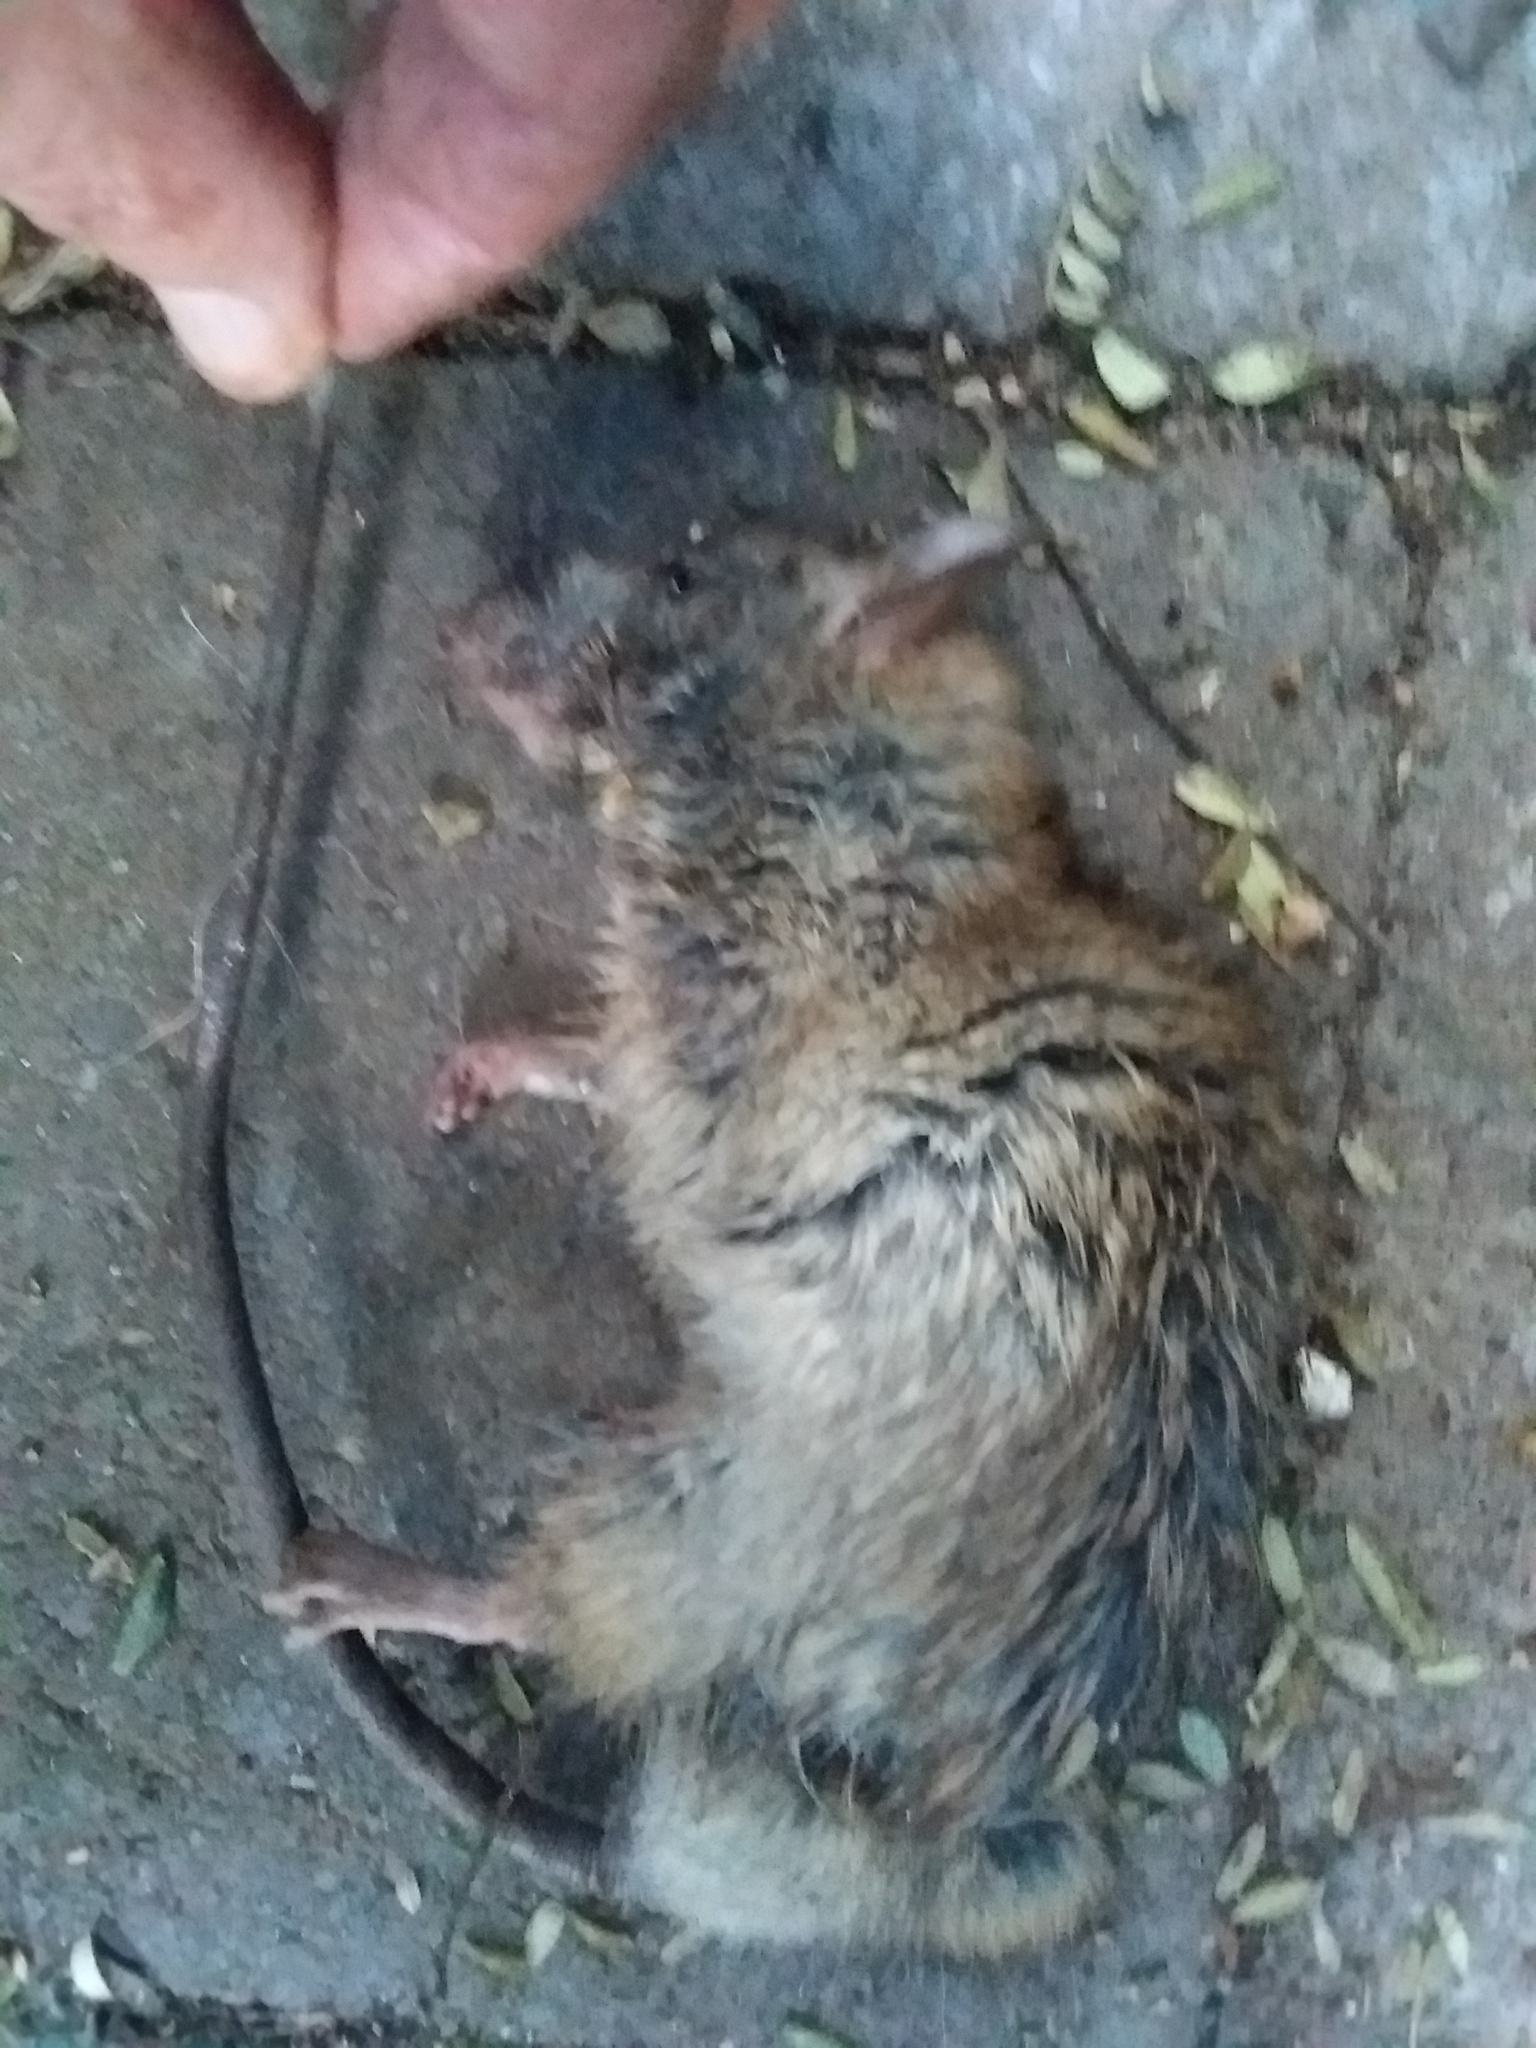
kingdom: Animalia
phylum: Chordata
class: Mammalia
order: Rodentia
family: Muridae
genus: Rattus
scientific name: Rattus rattus
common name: Black rat
